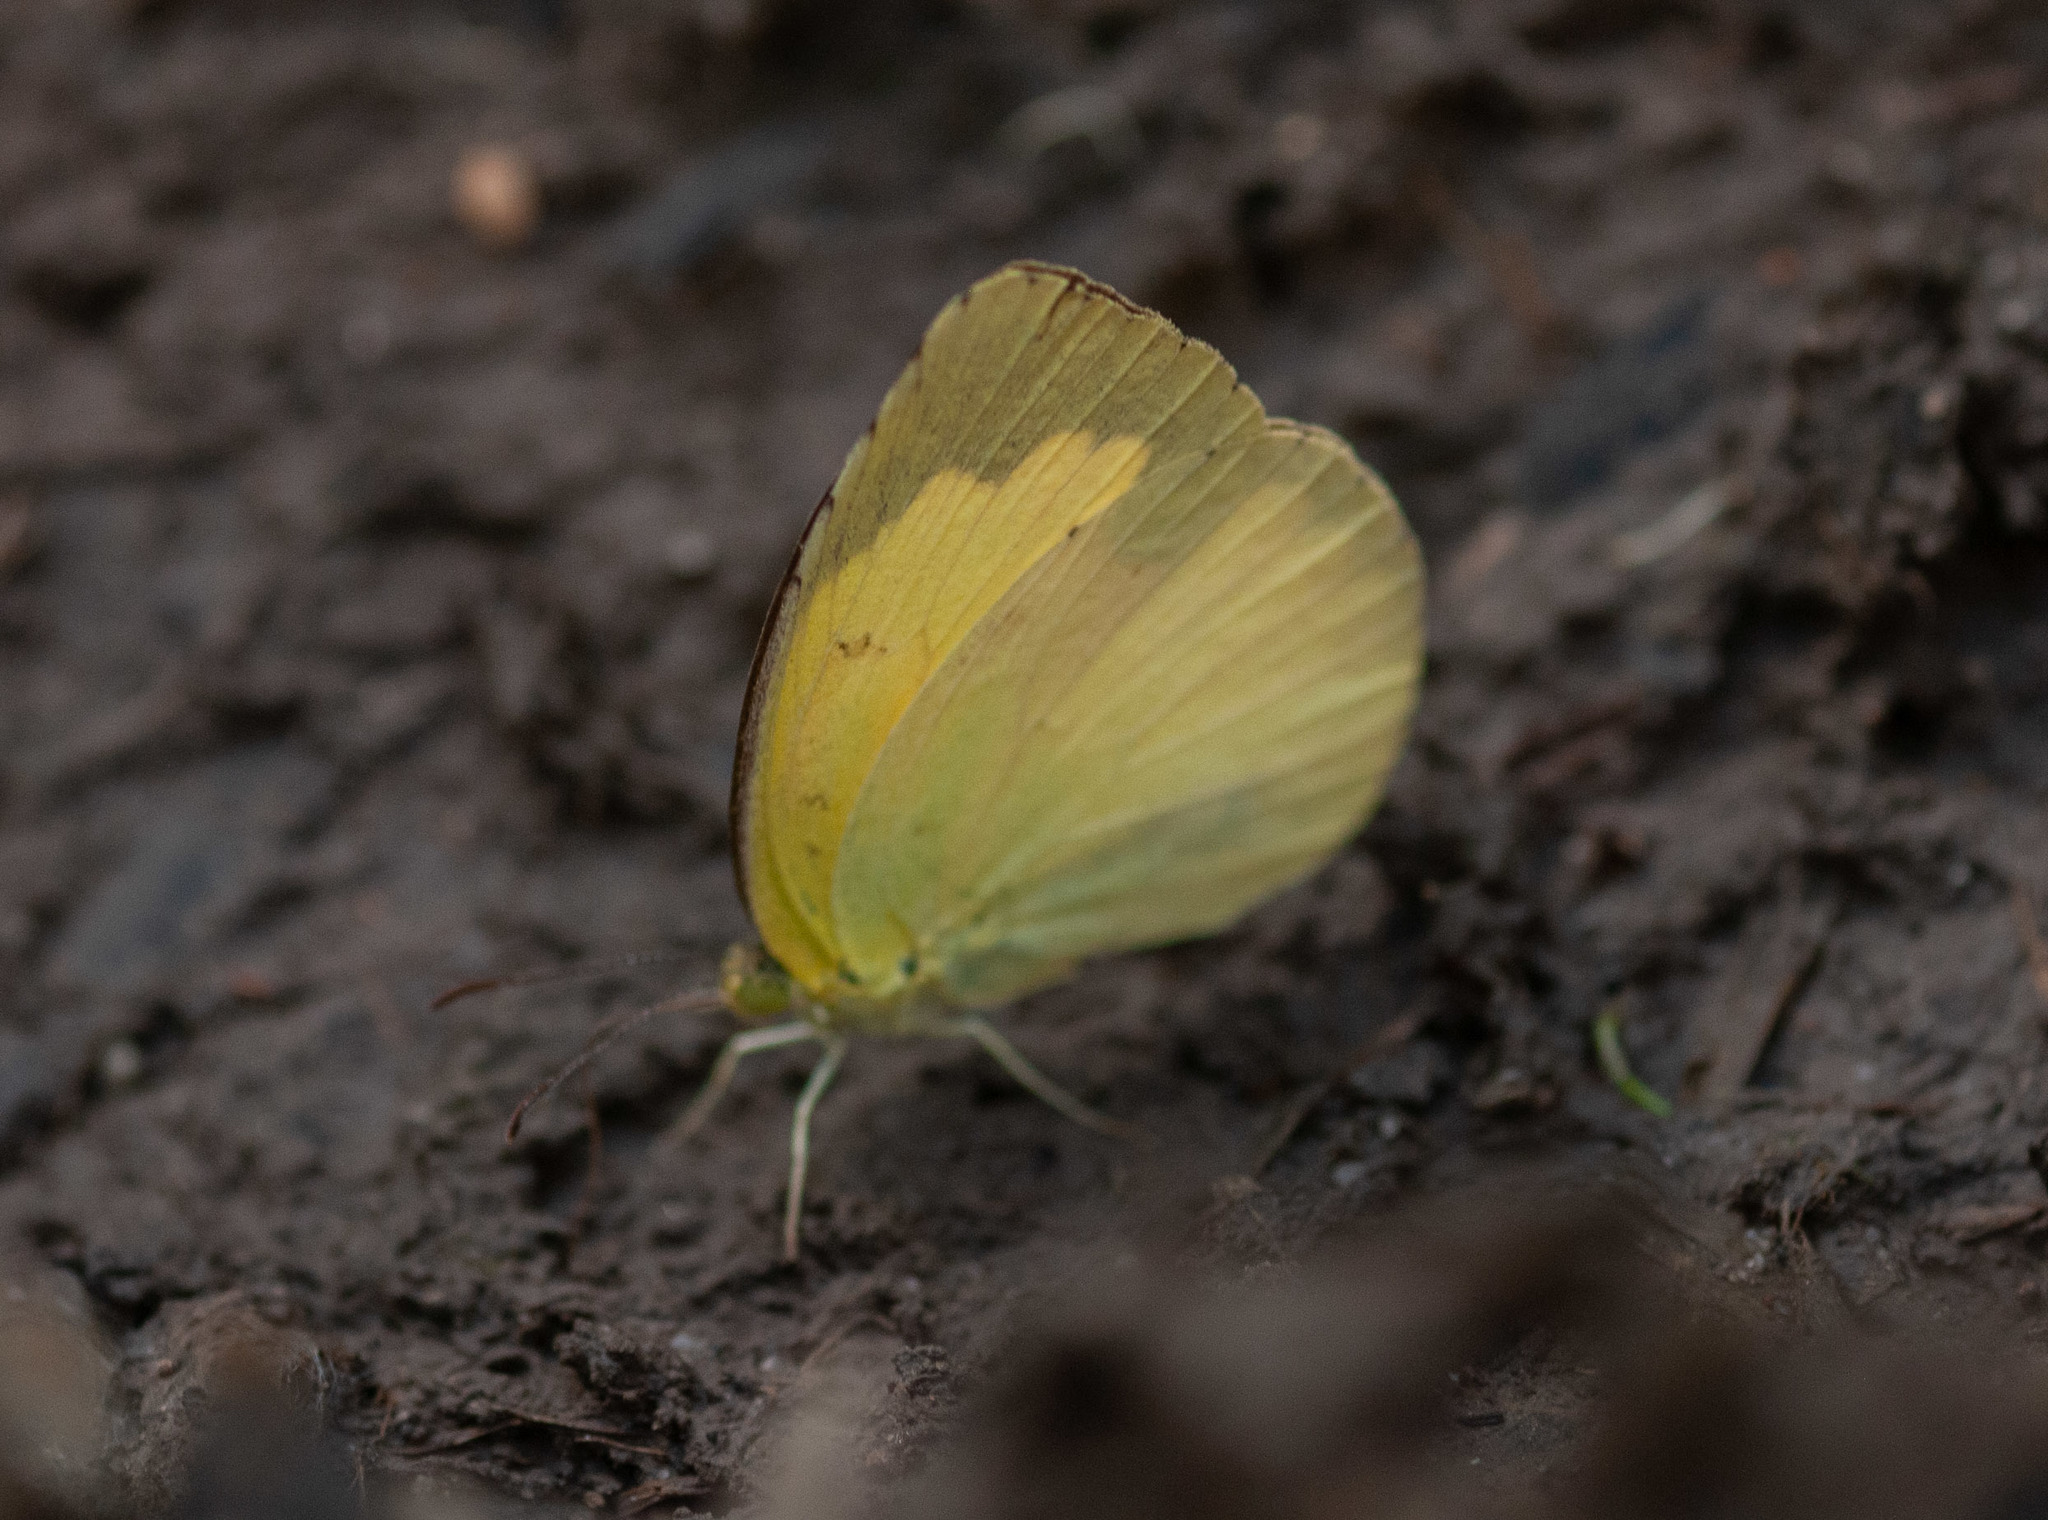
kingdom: Animalia
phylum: Arthropoda
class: Insecta
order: Lepidoptera
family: Pieridae
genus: Eurema
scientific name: Eurema hecabe
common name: Pale grass yellow
